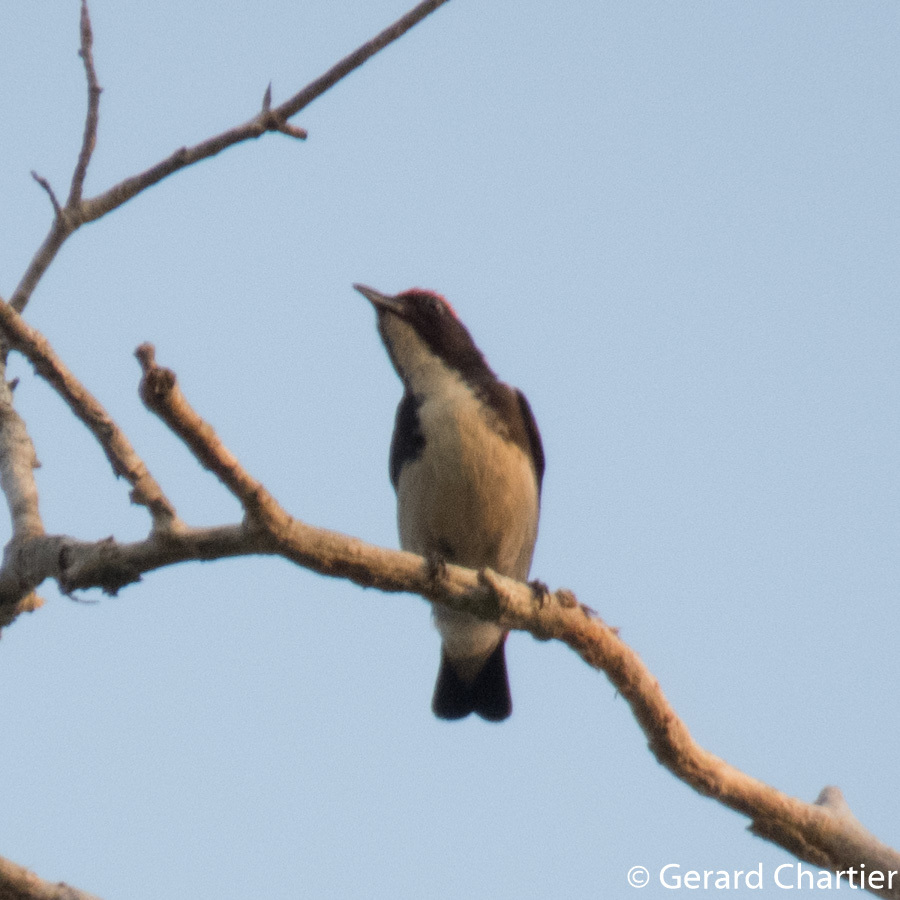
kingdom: Animalia
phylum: Chordata
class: Aves
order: Passeriformes
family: Dicaeidae
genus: Dicaeum
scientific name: Dicaeum cruentatum
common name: Scarlet-backed flowerpecker
